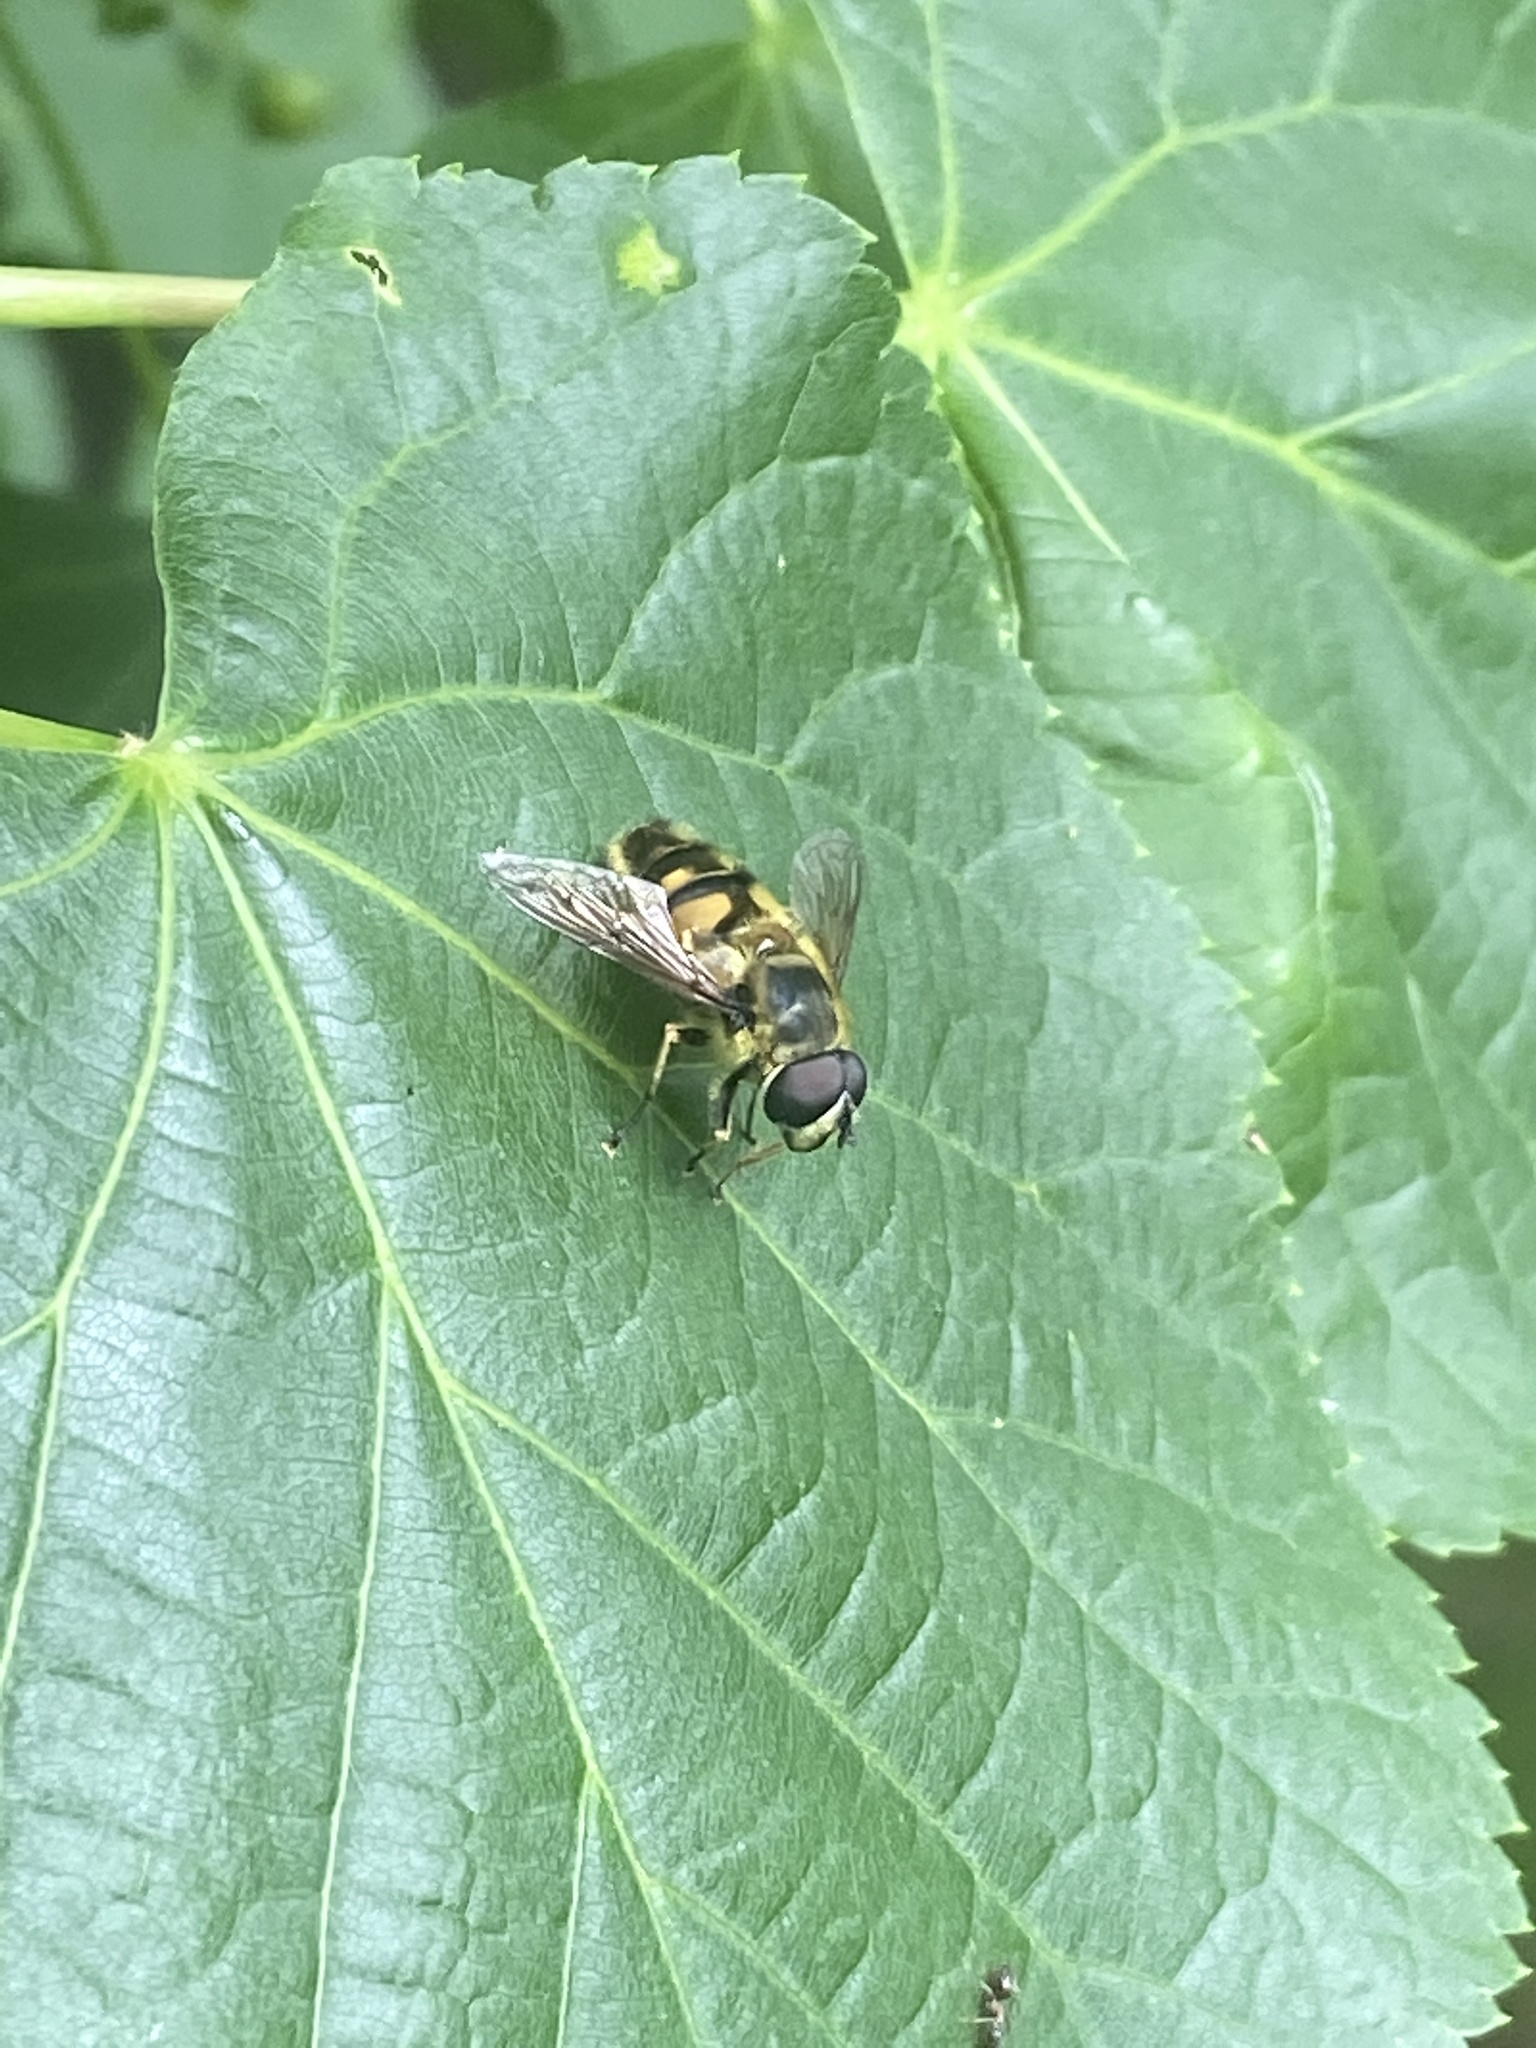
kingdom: Animalia
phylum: Arthropoda
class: Insecta
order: Diptera
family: Syrphidae
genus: Myathropa
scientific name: Myathropa florea
